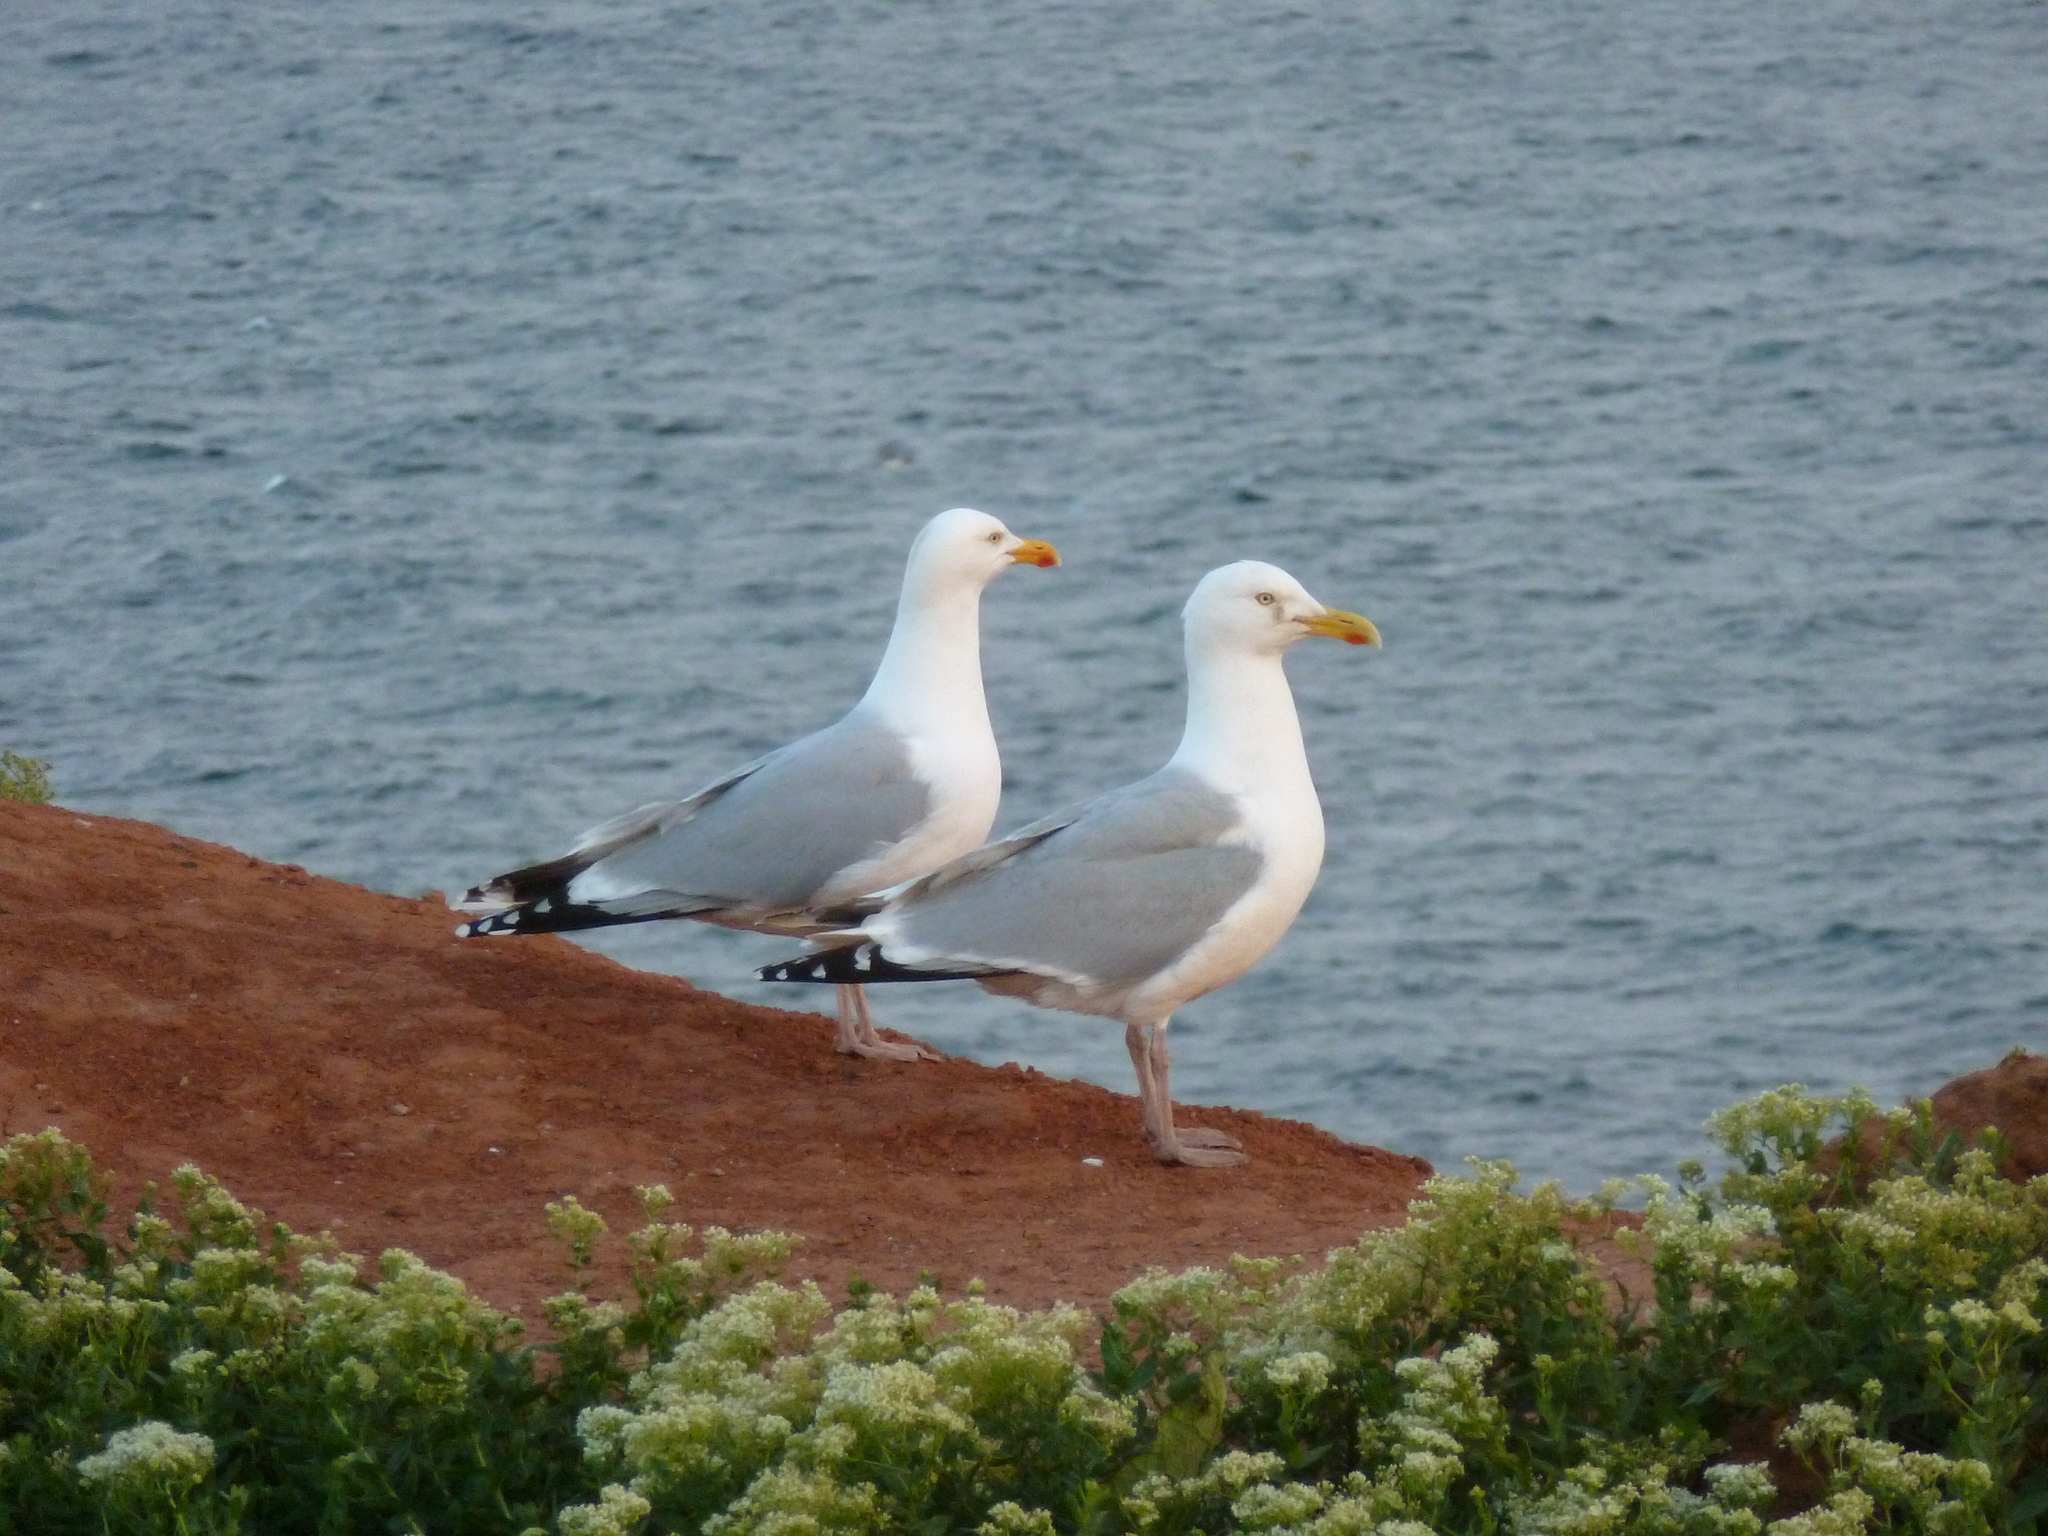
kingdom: Animalia
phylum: Chordata
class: Aves
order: Charadriiformes
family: Laridae
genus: Larus
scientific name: Larus argentatus
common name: Herring gull
